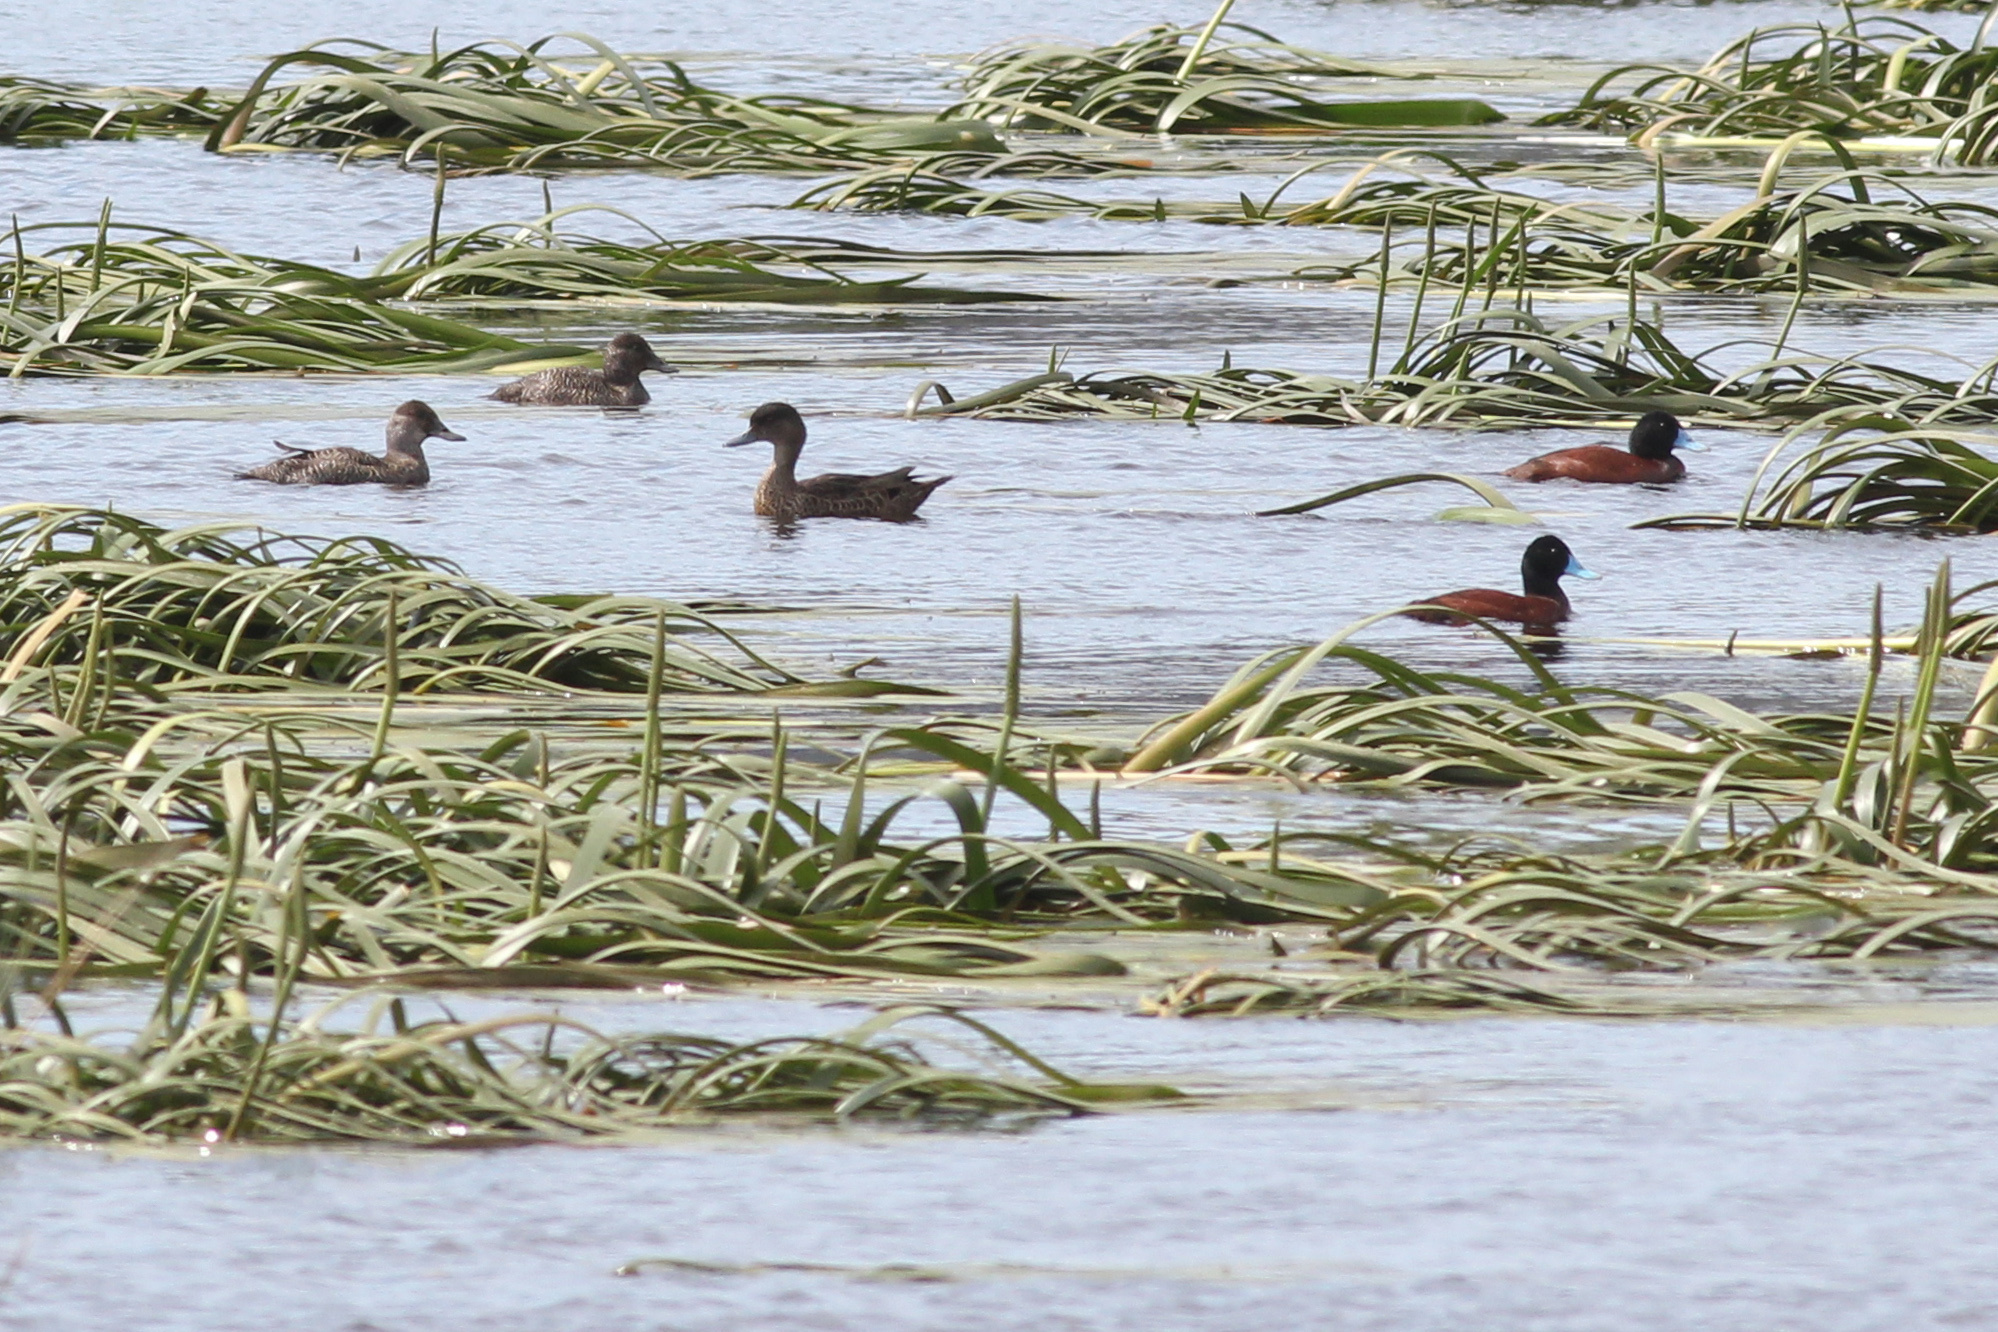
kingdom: Animalia
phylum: Chordata
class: Aves
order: Anseriformes
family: Anatidae
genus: Oxyura
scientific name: Oxyura australis
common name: Blue-billed duck
